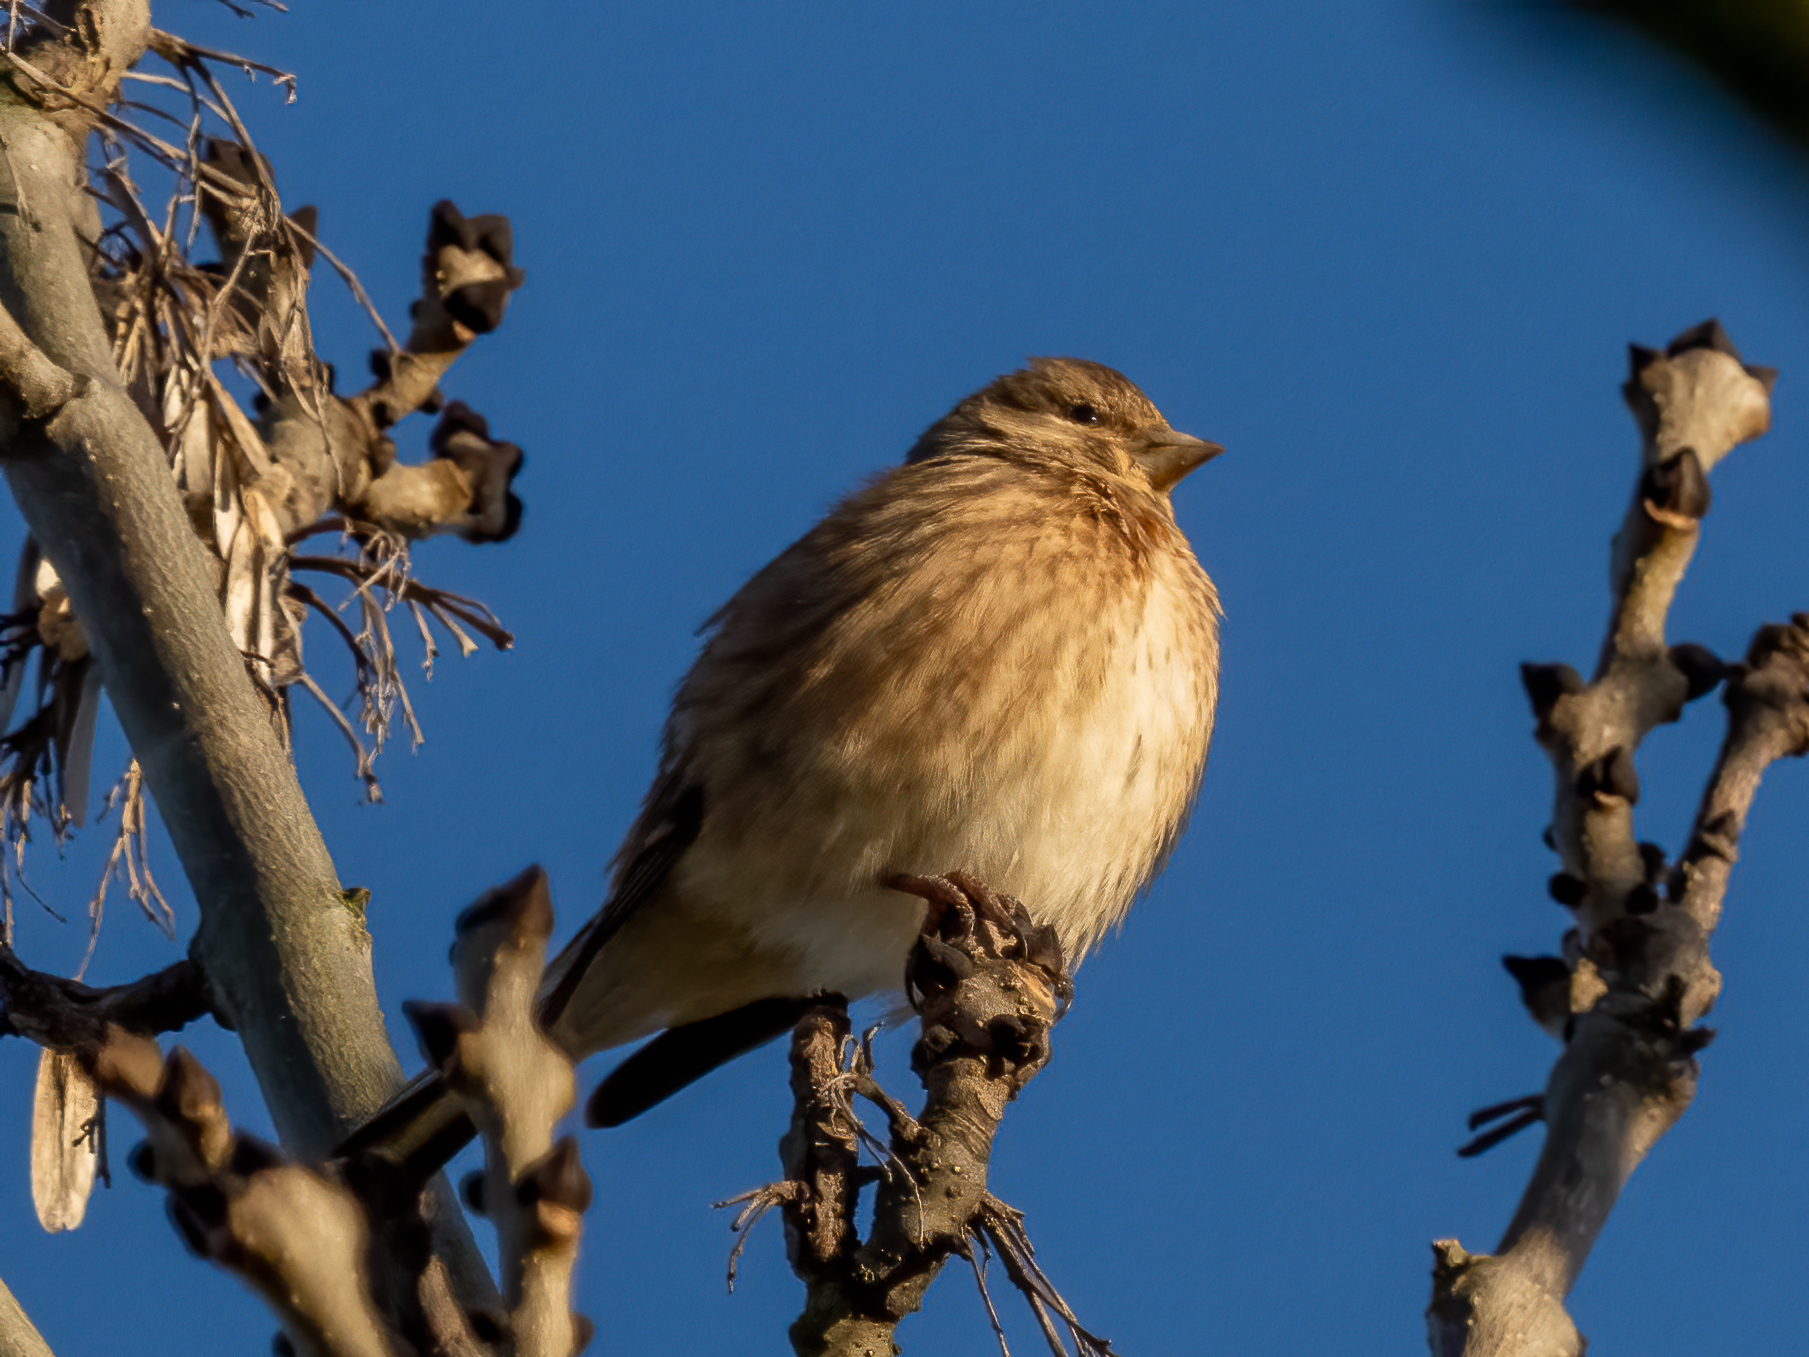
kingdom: Animalia
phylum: Chordata
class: Aves
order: Passeriformes
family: Fringillidae
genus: Linaria
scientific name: Linaria cannabina
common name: Common linnet
